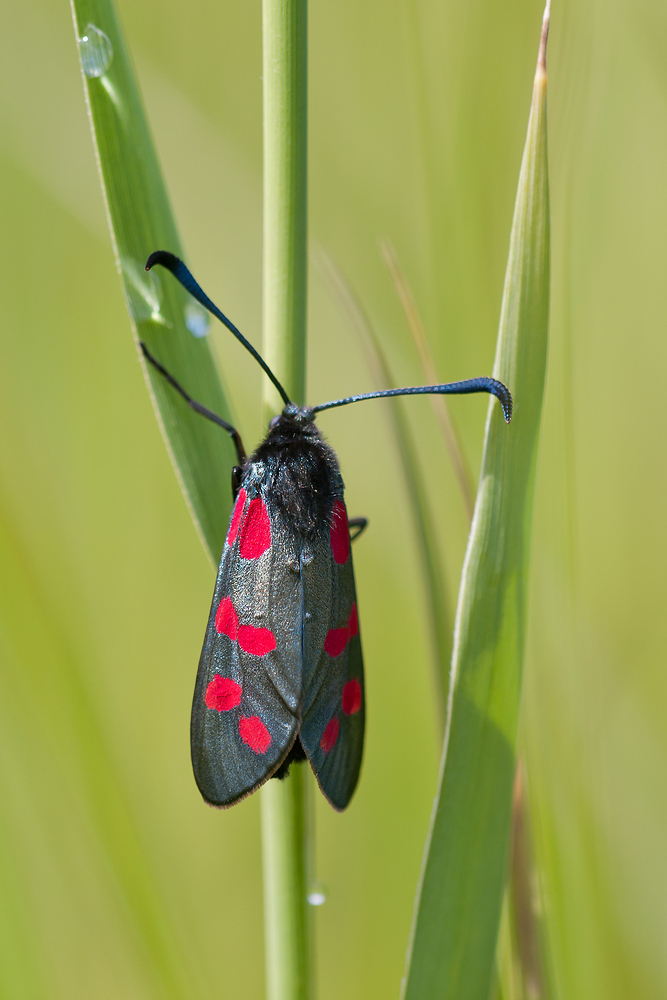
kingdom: Animalia
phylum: Arthropoda
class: Insecta
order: Lepidoptera
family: Zygaenidae
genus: Zygaena
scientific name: Zygaena filipendulae
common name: Six-spot burnet
